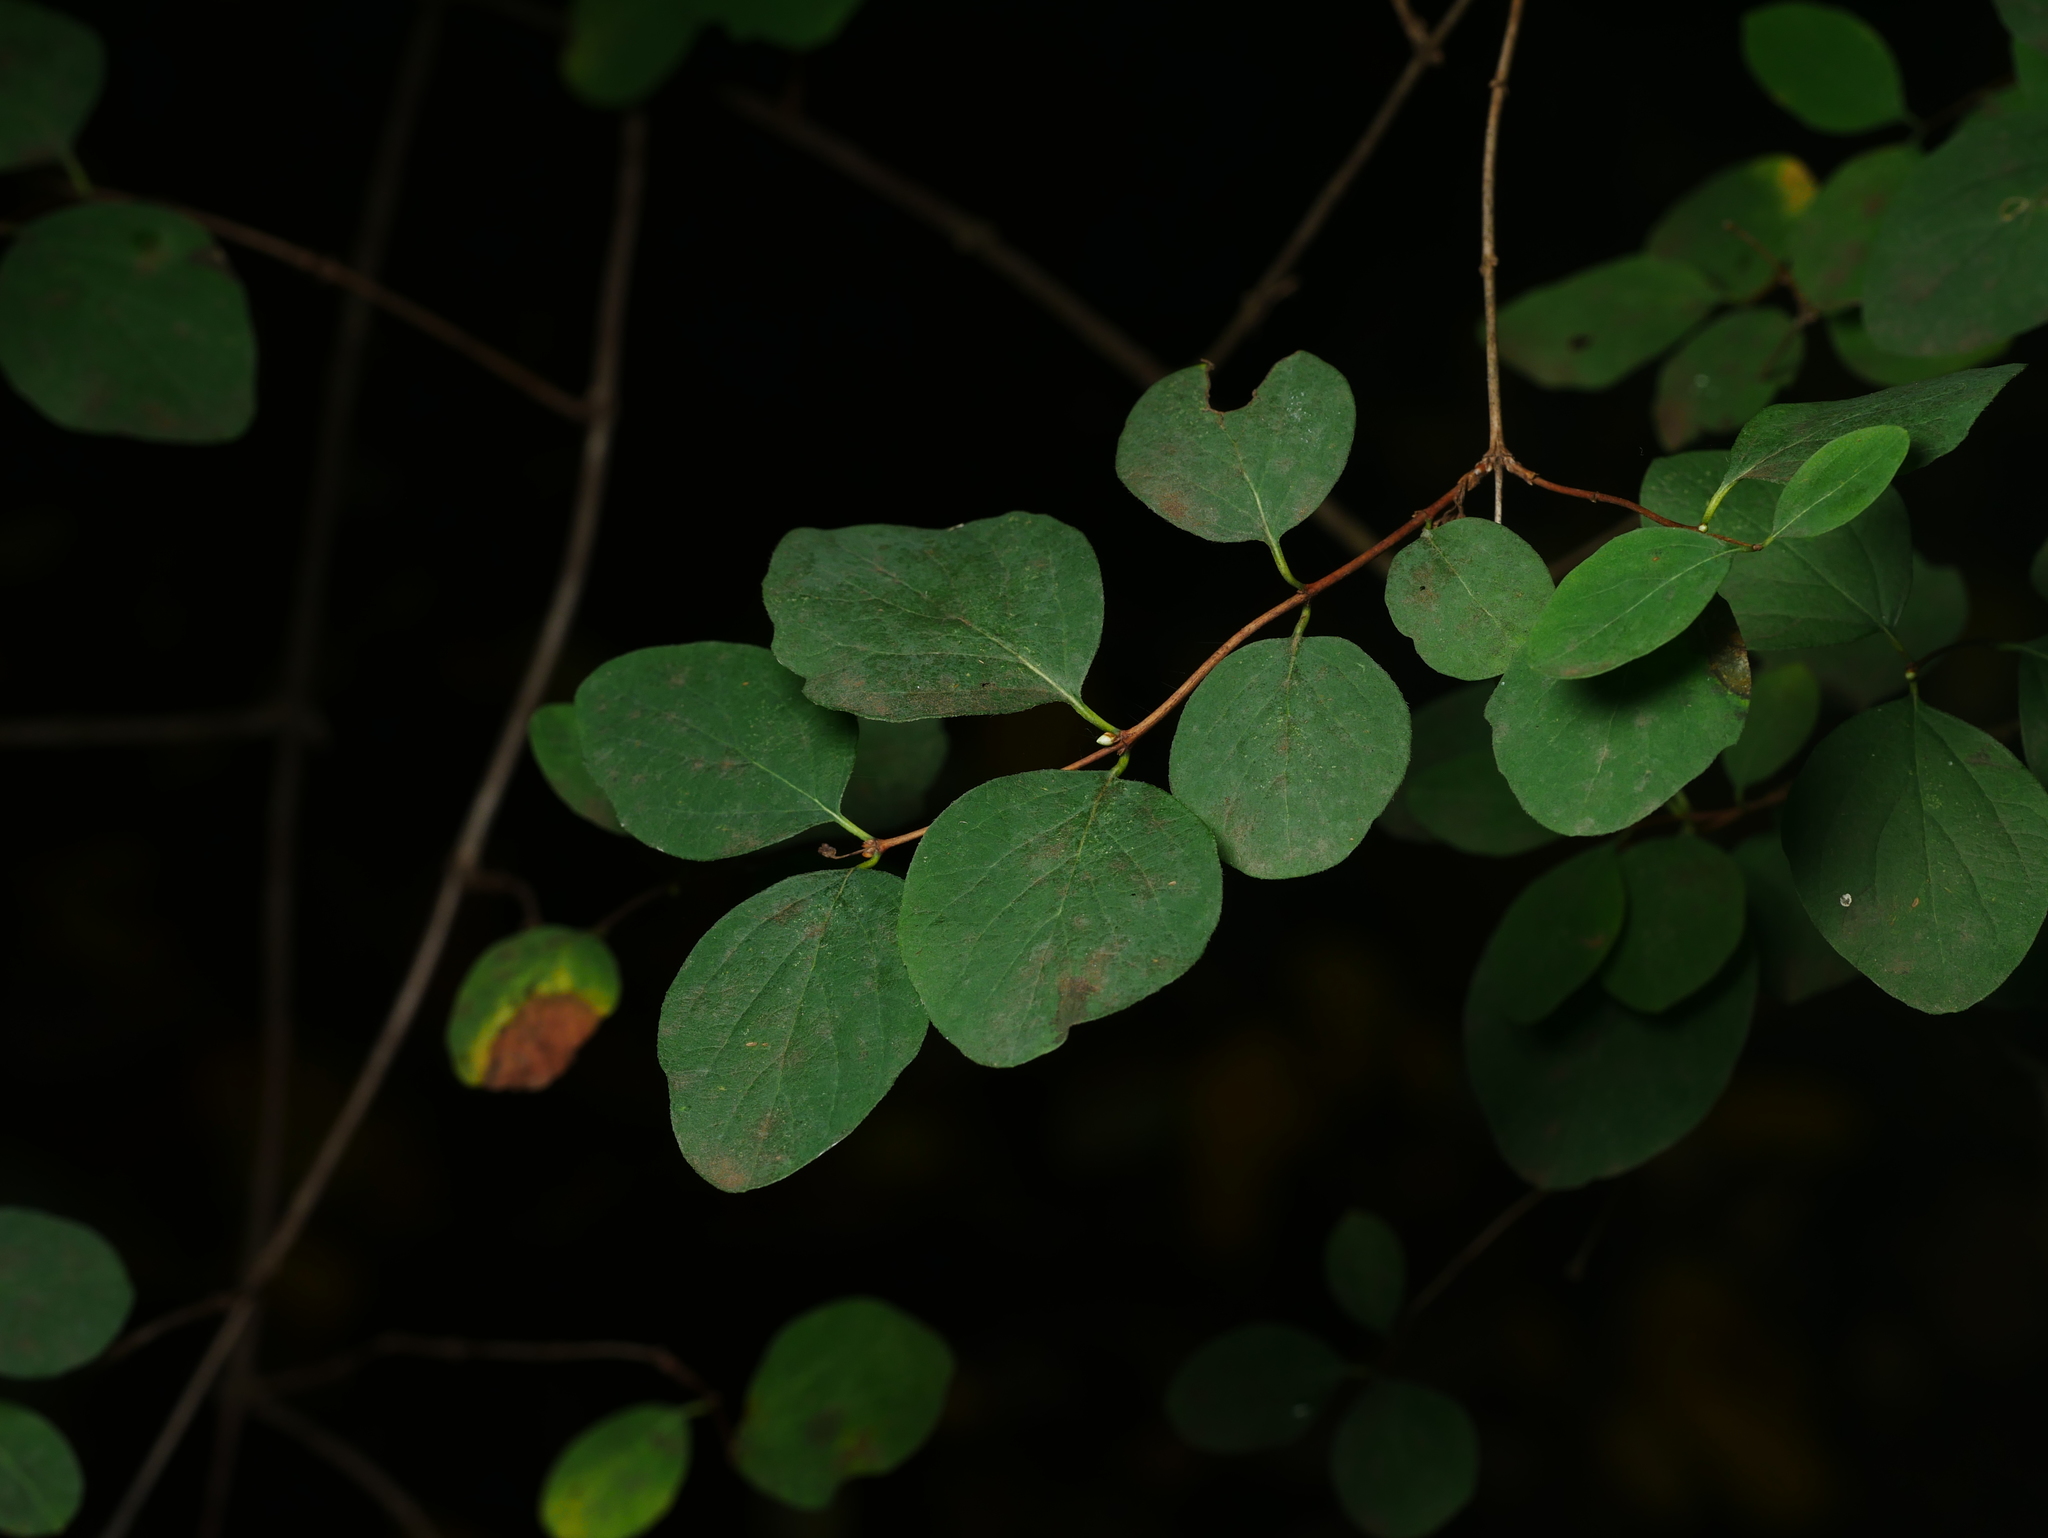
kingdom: Plantae
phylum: Tracheophyta
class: Magnoliopsida
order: Dipsacales
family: Caprifoliaceae
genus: Symphoricarpos
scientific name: Symphoricarpos albus
